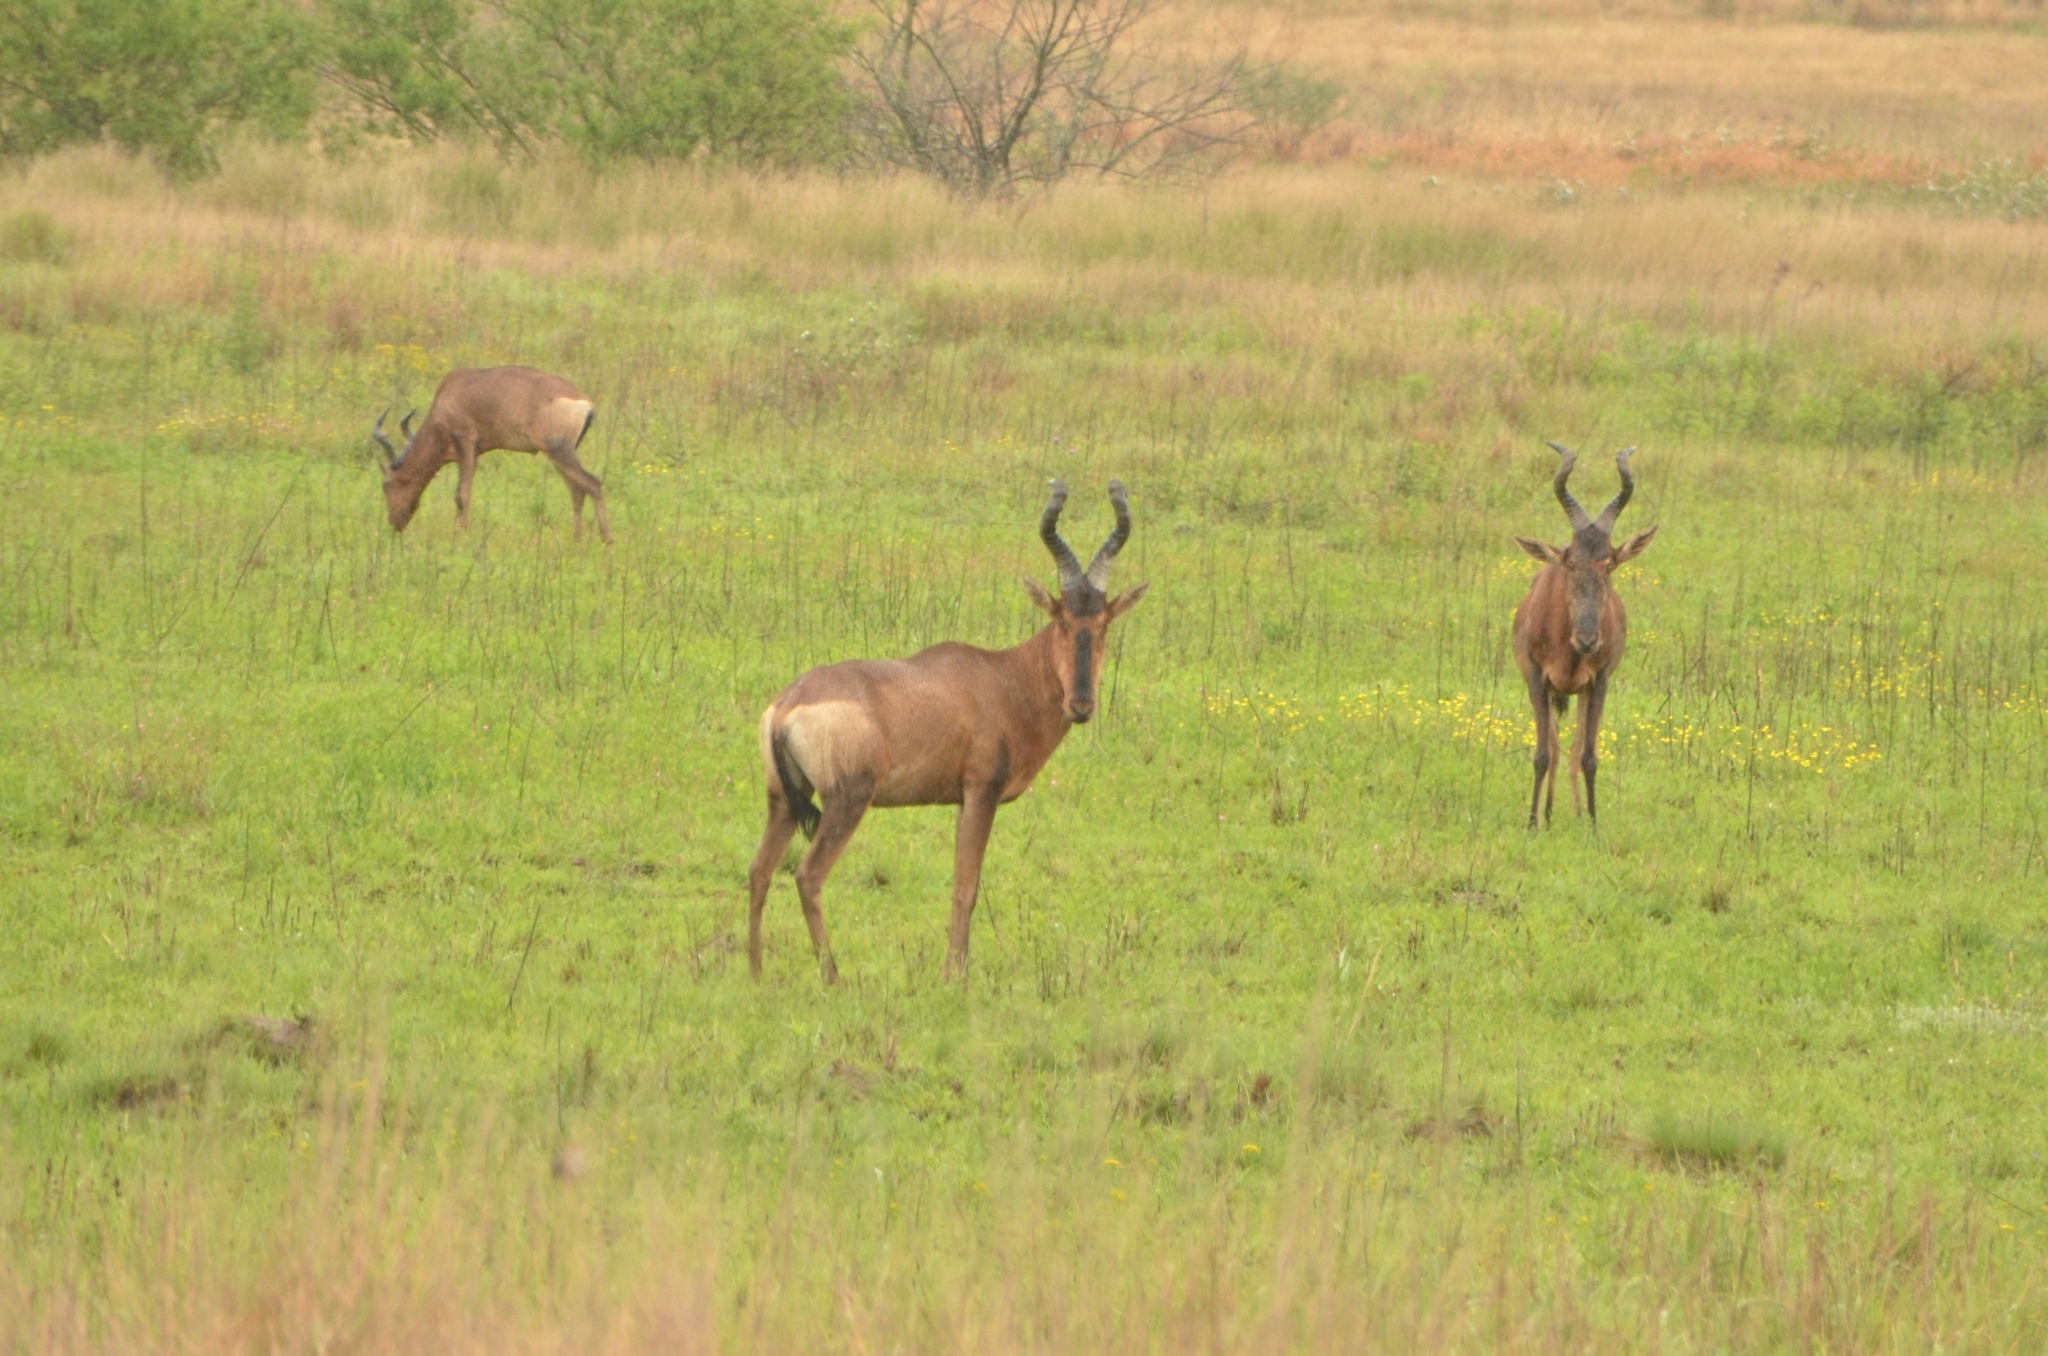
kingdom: Animalia
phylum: Chordata
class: Mammalia
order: Artiodactyla
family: Bovidae
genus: Alcelaphus
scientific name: Alcelaphus caama
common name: Red hartebeest
